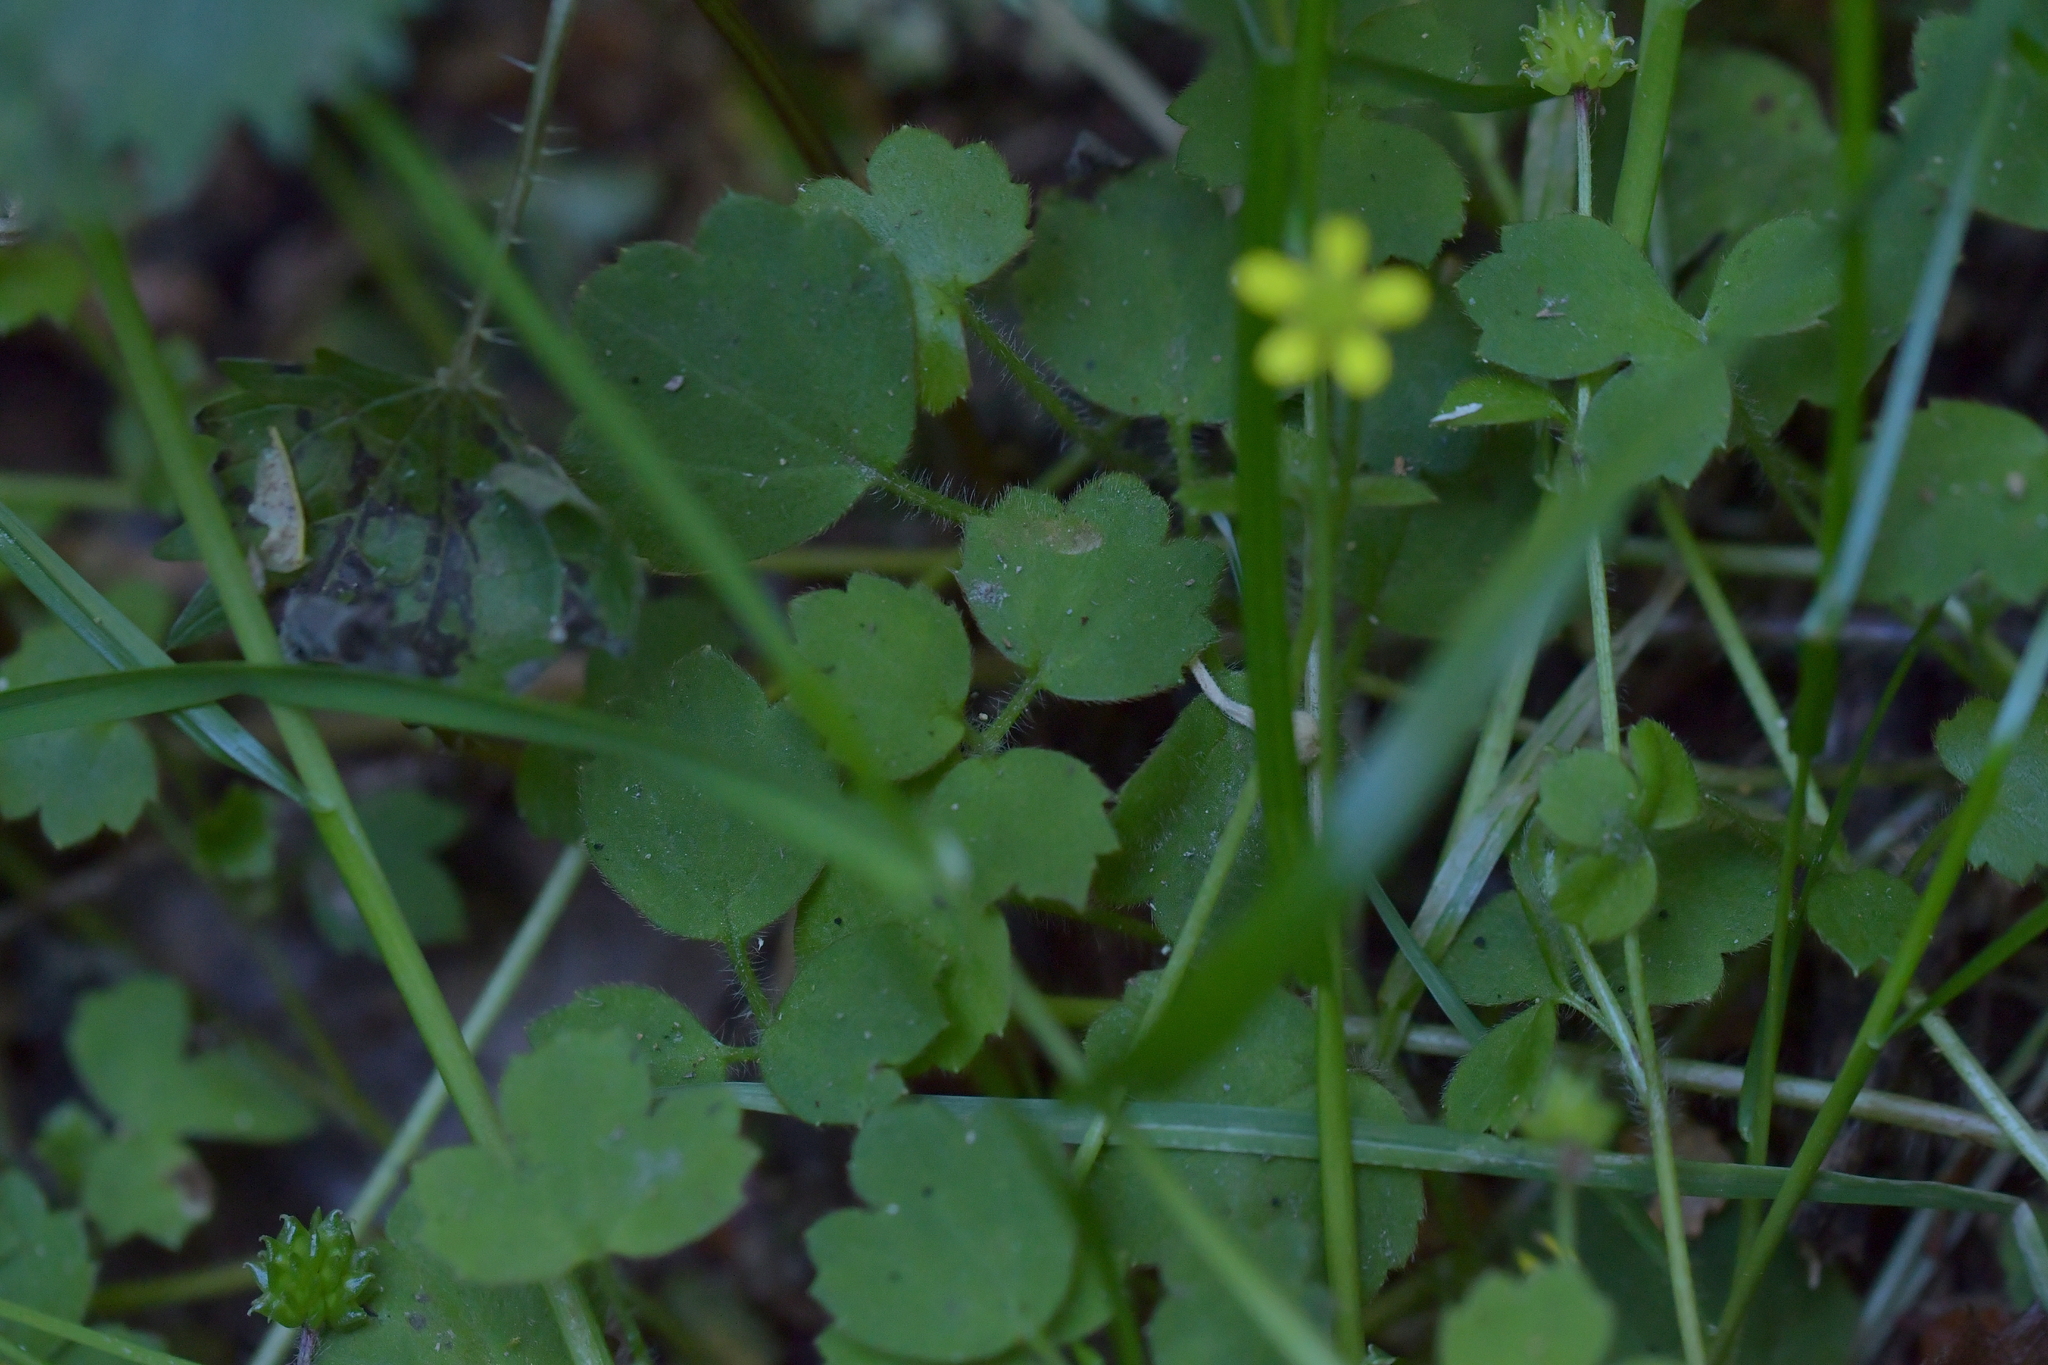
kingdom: Plantae
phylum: Tracheophyta
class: Magnoliopsida
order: Ranunculales
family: Ranunculaceae
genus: Ranunculus
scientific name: Ranunculus reflexus
